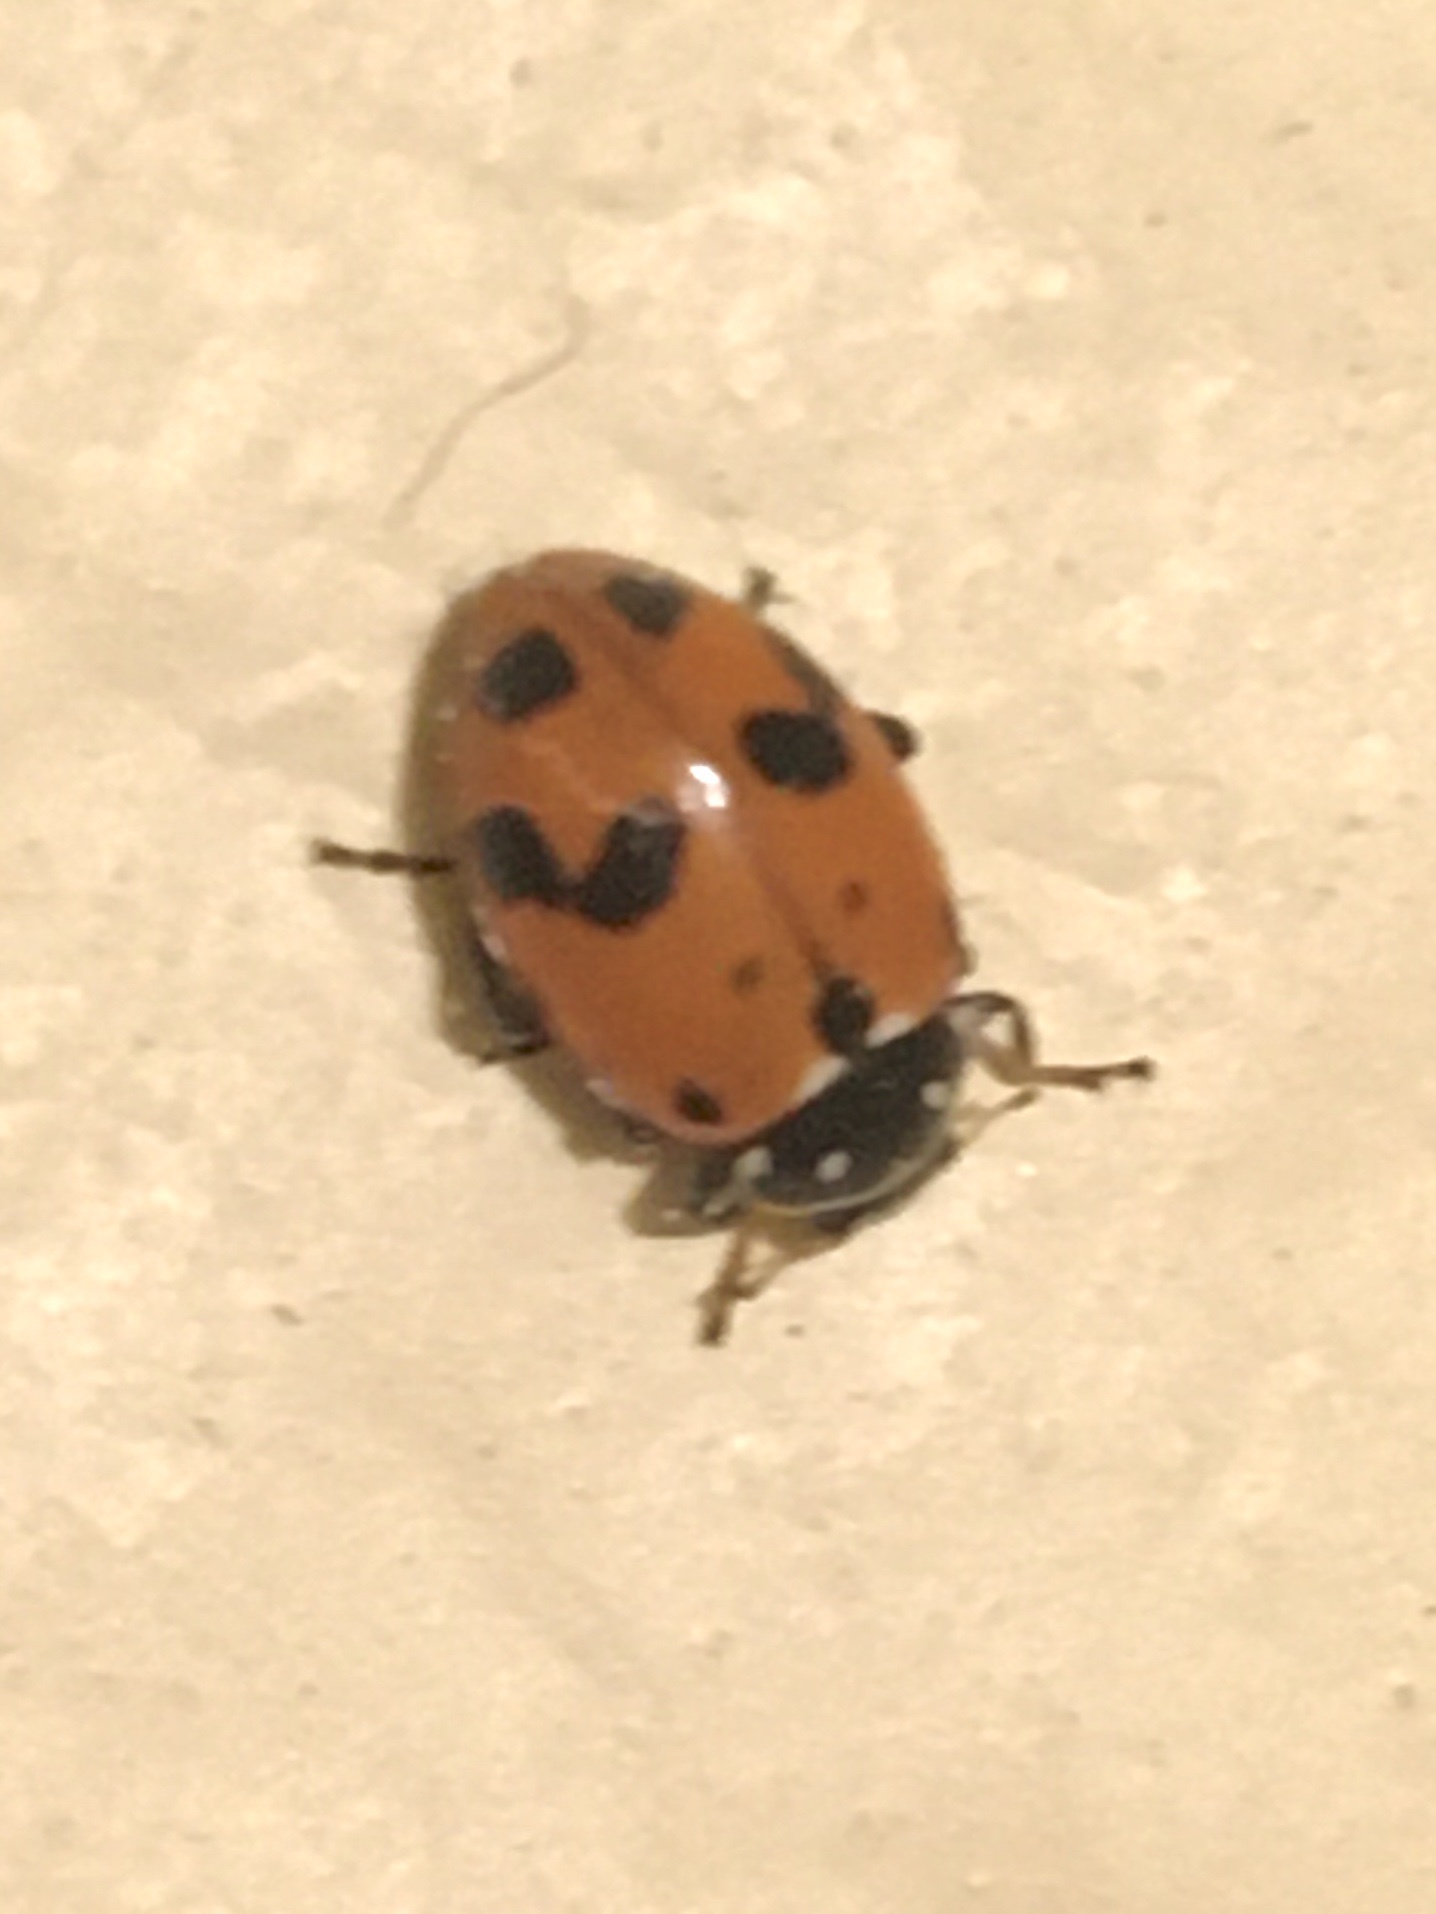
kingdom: Animalia
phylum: Arthropoda
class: Insecta
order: Coleoptera
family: Coccinellidae
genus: Hippodamia
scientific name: Hippodamia variegata
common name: Ladybird beetle
